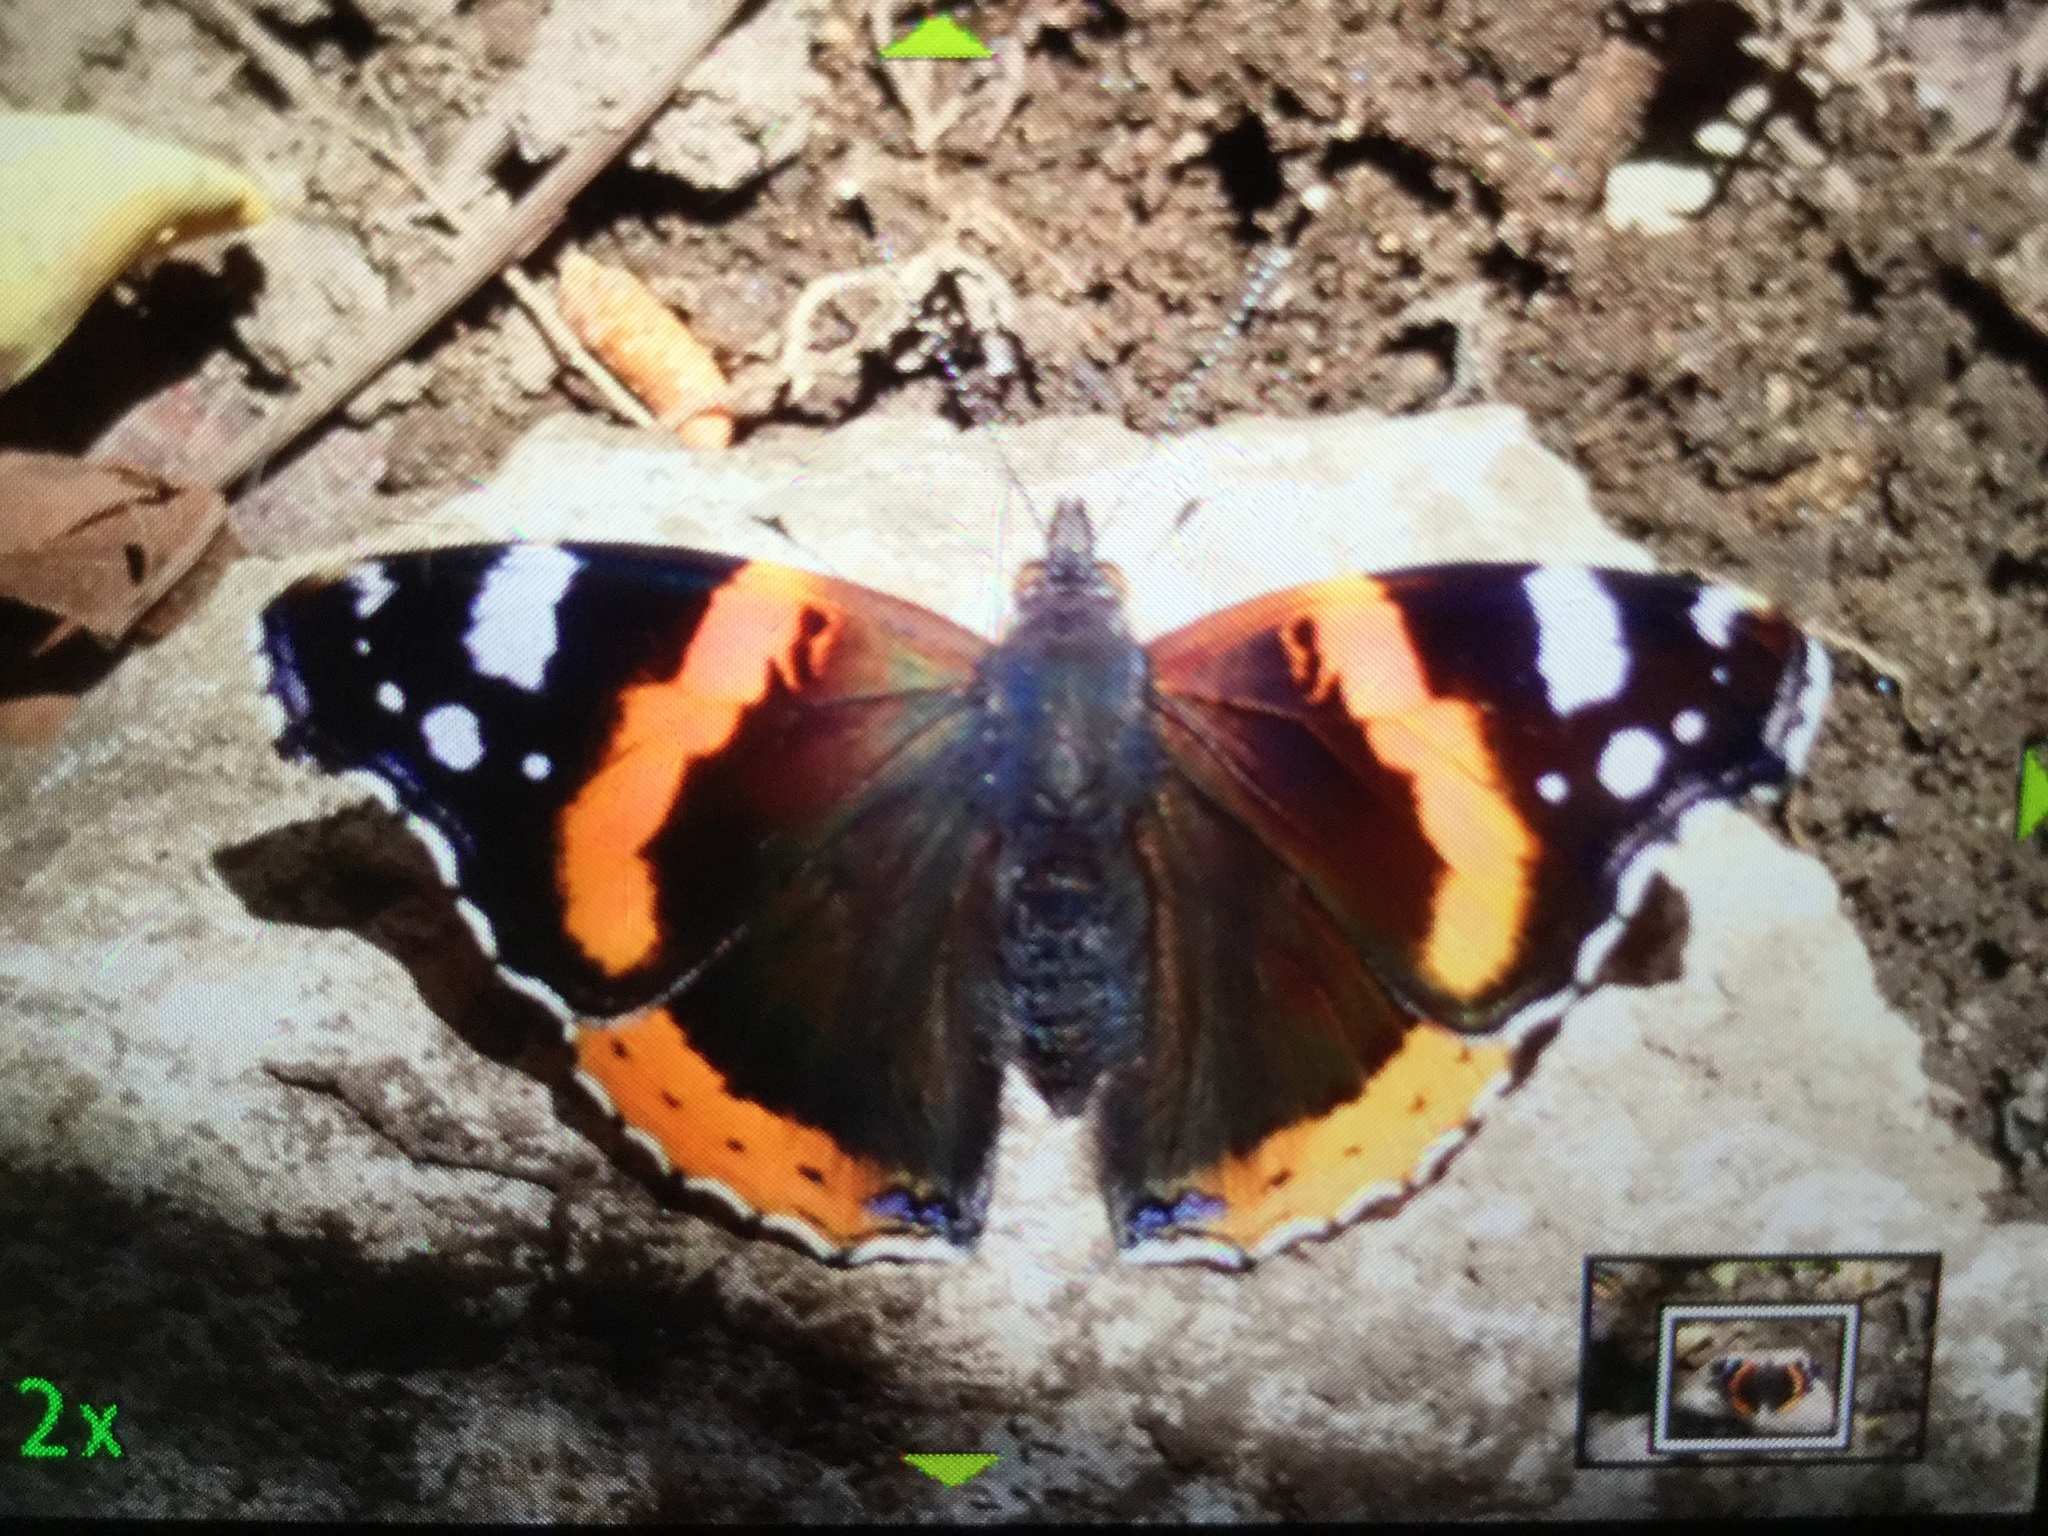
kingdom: Animalia
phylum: Arthropoda
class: Insecta
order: Lepidoptera
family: Nymphalidae
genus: Vanessa
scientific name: Vanessa atalanta
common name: Red admiral
